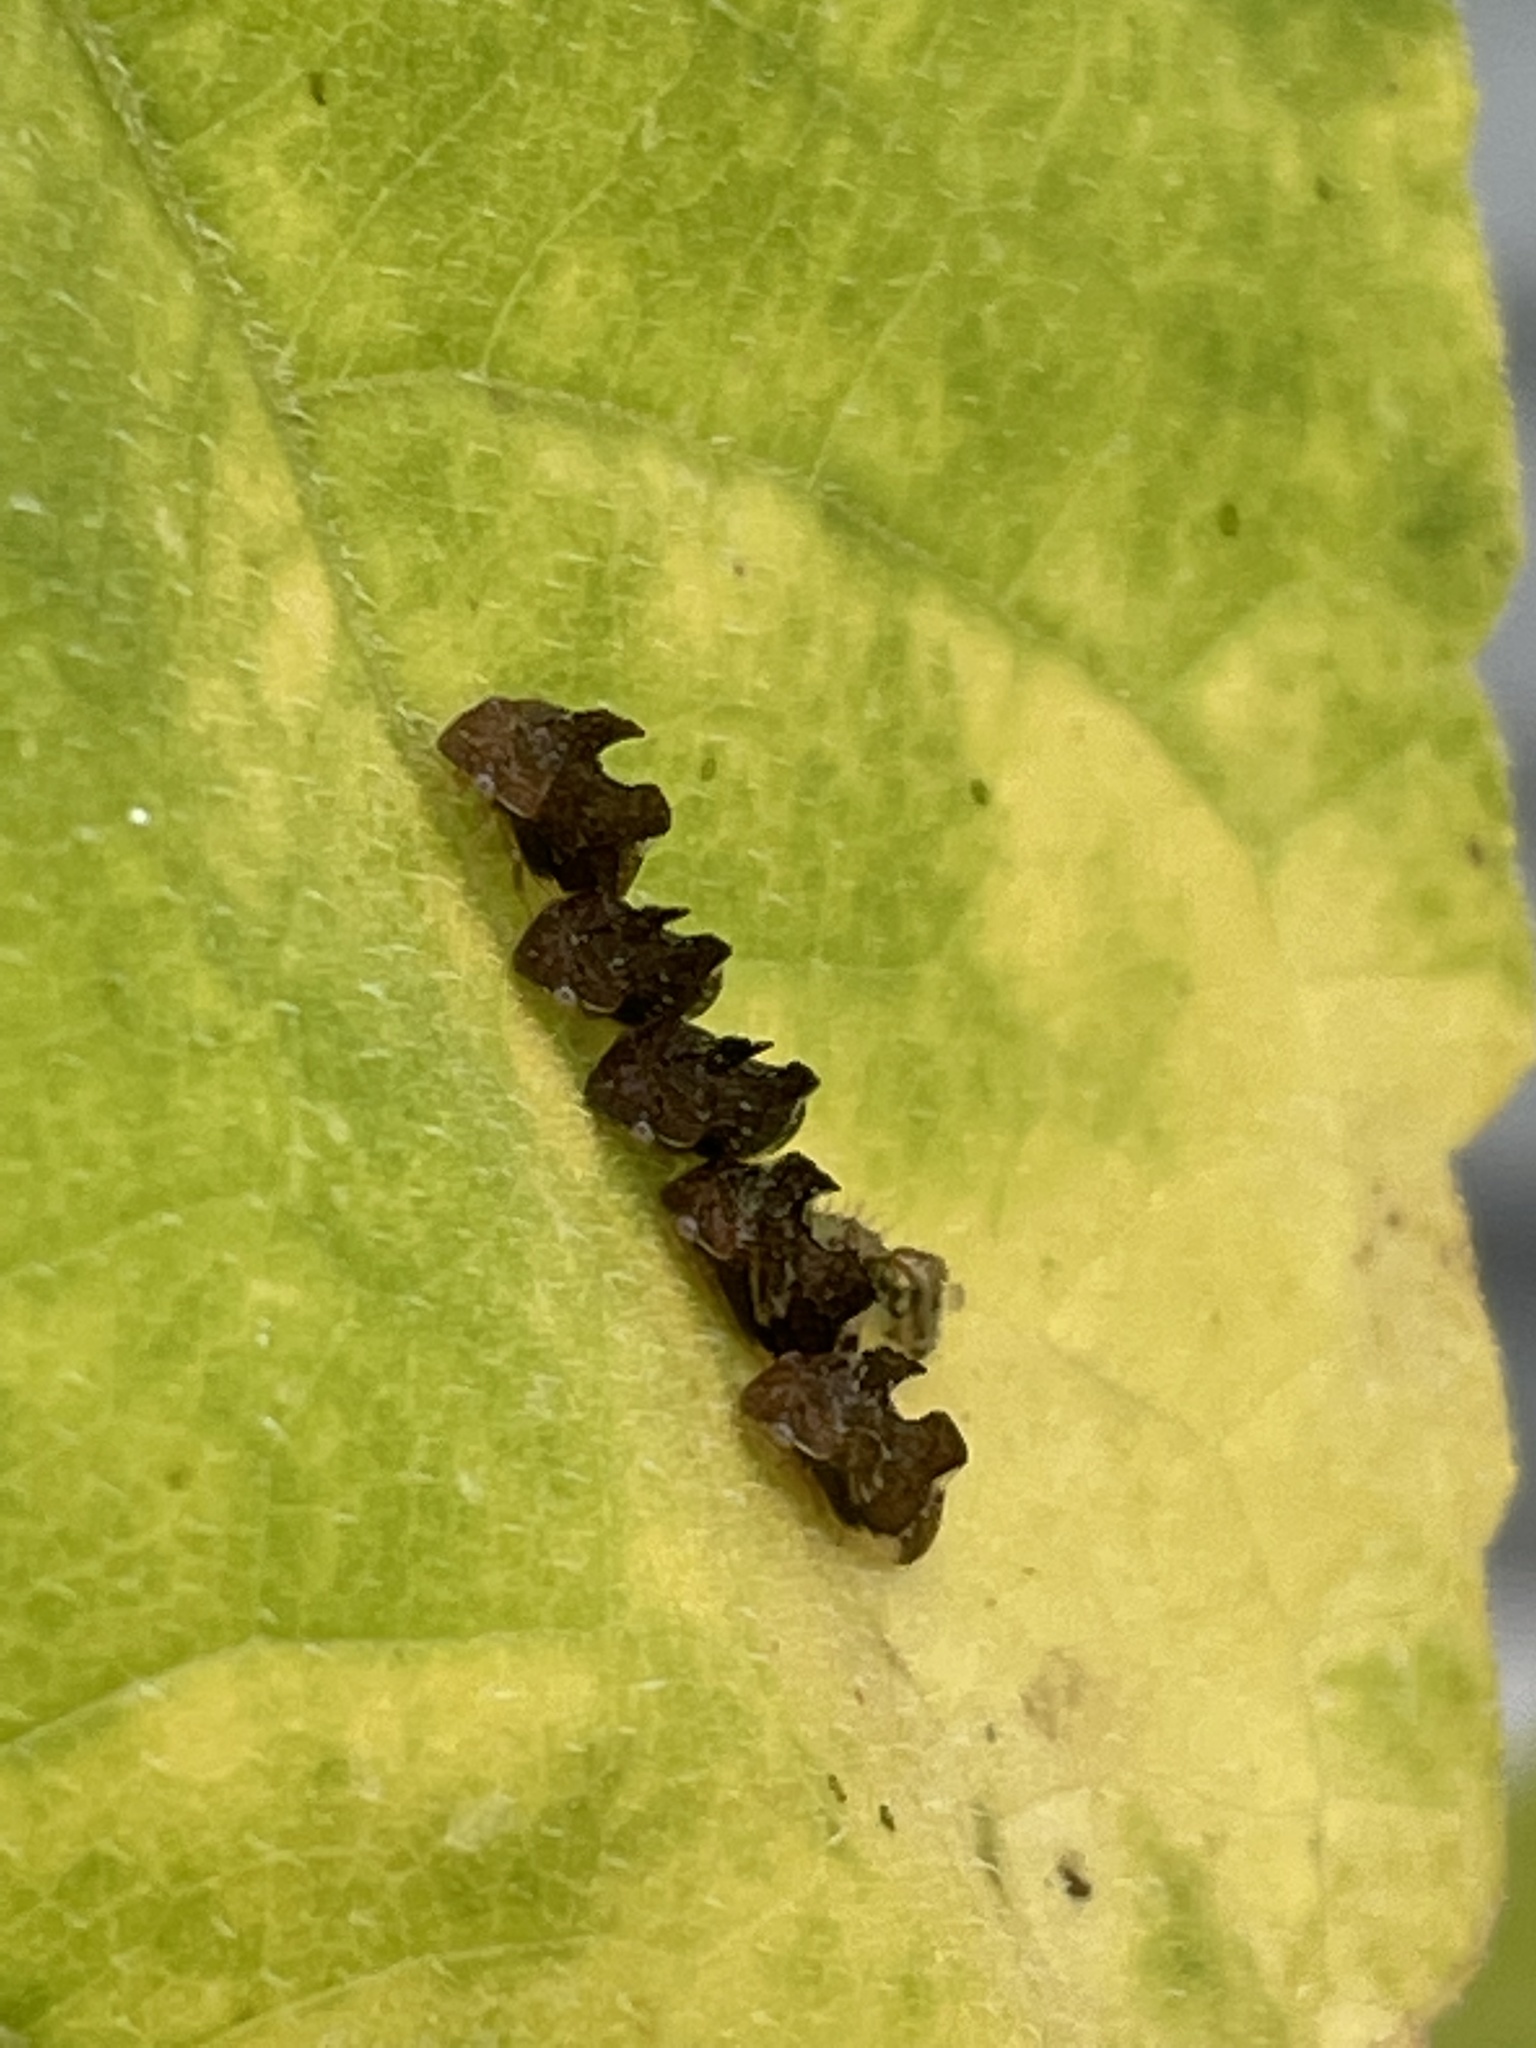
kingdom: Animalia
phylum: Arthropoda
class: Insecta
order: Hemiptera
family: Membracidae
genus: Entylia
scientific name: Entylia carinata
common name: Keeled treehopper
